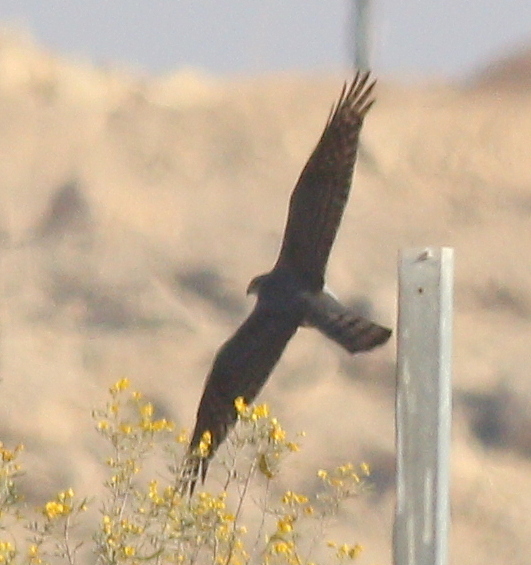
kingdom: Animalia
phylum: Chordata
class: Aves
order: Accipitriformes
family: Accipitridae
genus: Accipiter
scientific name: Accipiter nisus
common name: Eurasian sparrowhawk
